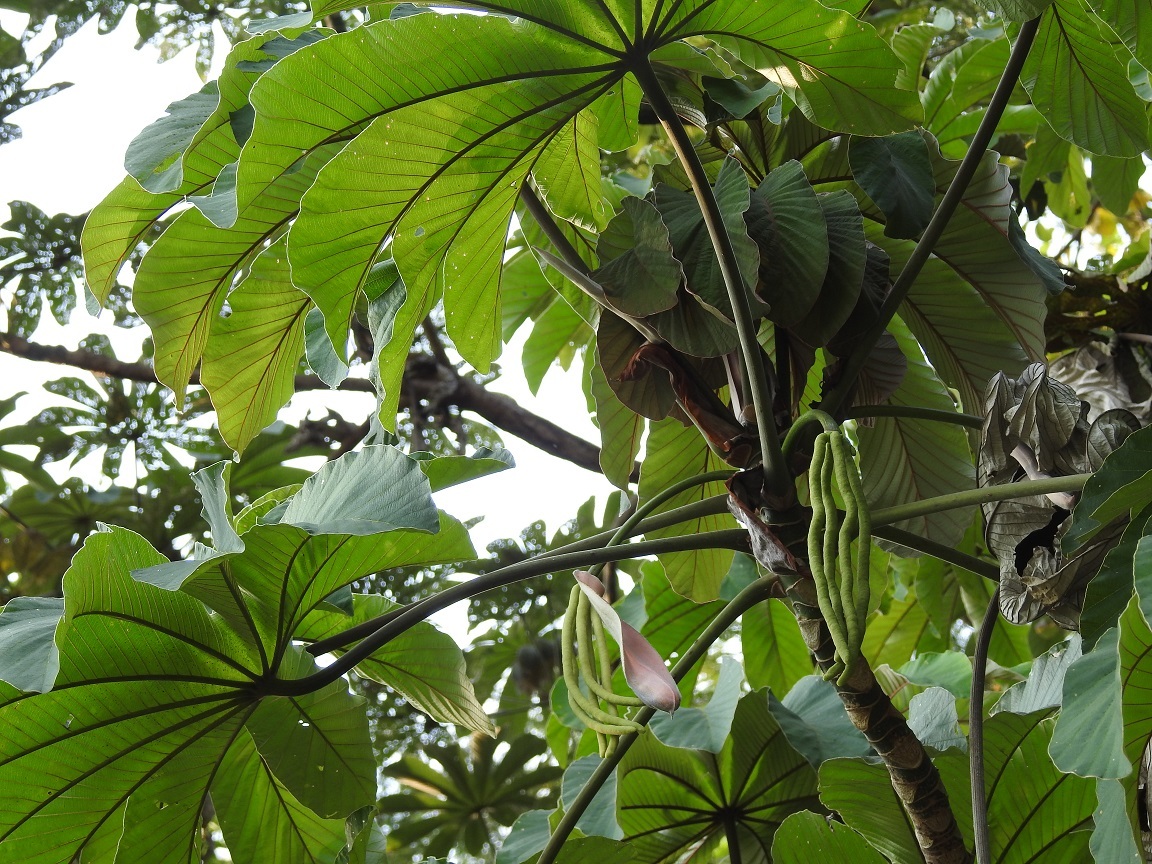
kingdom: Plantae
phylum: Tracheophyta
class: Magnoliopsida
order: Rosales
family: Urticaceae
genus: Cecropia
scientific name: Cecropia obtusifolia
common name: Trumpet tree
